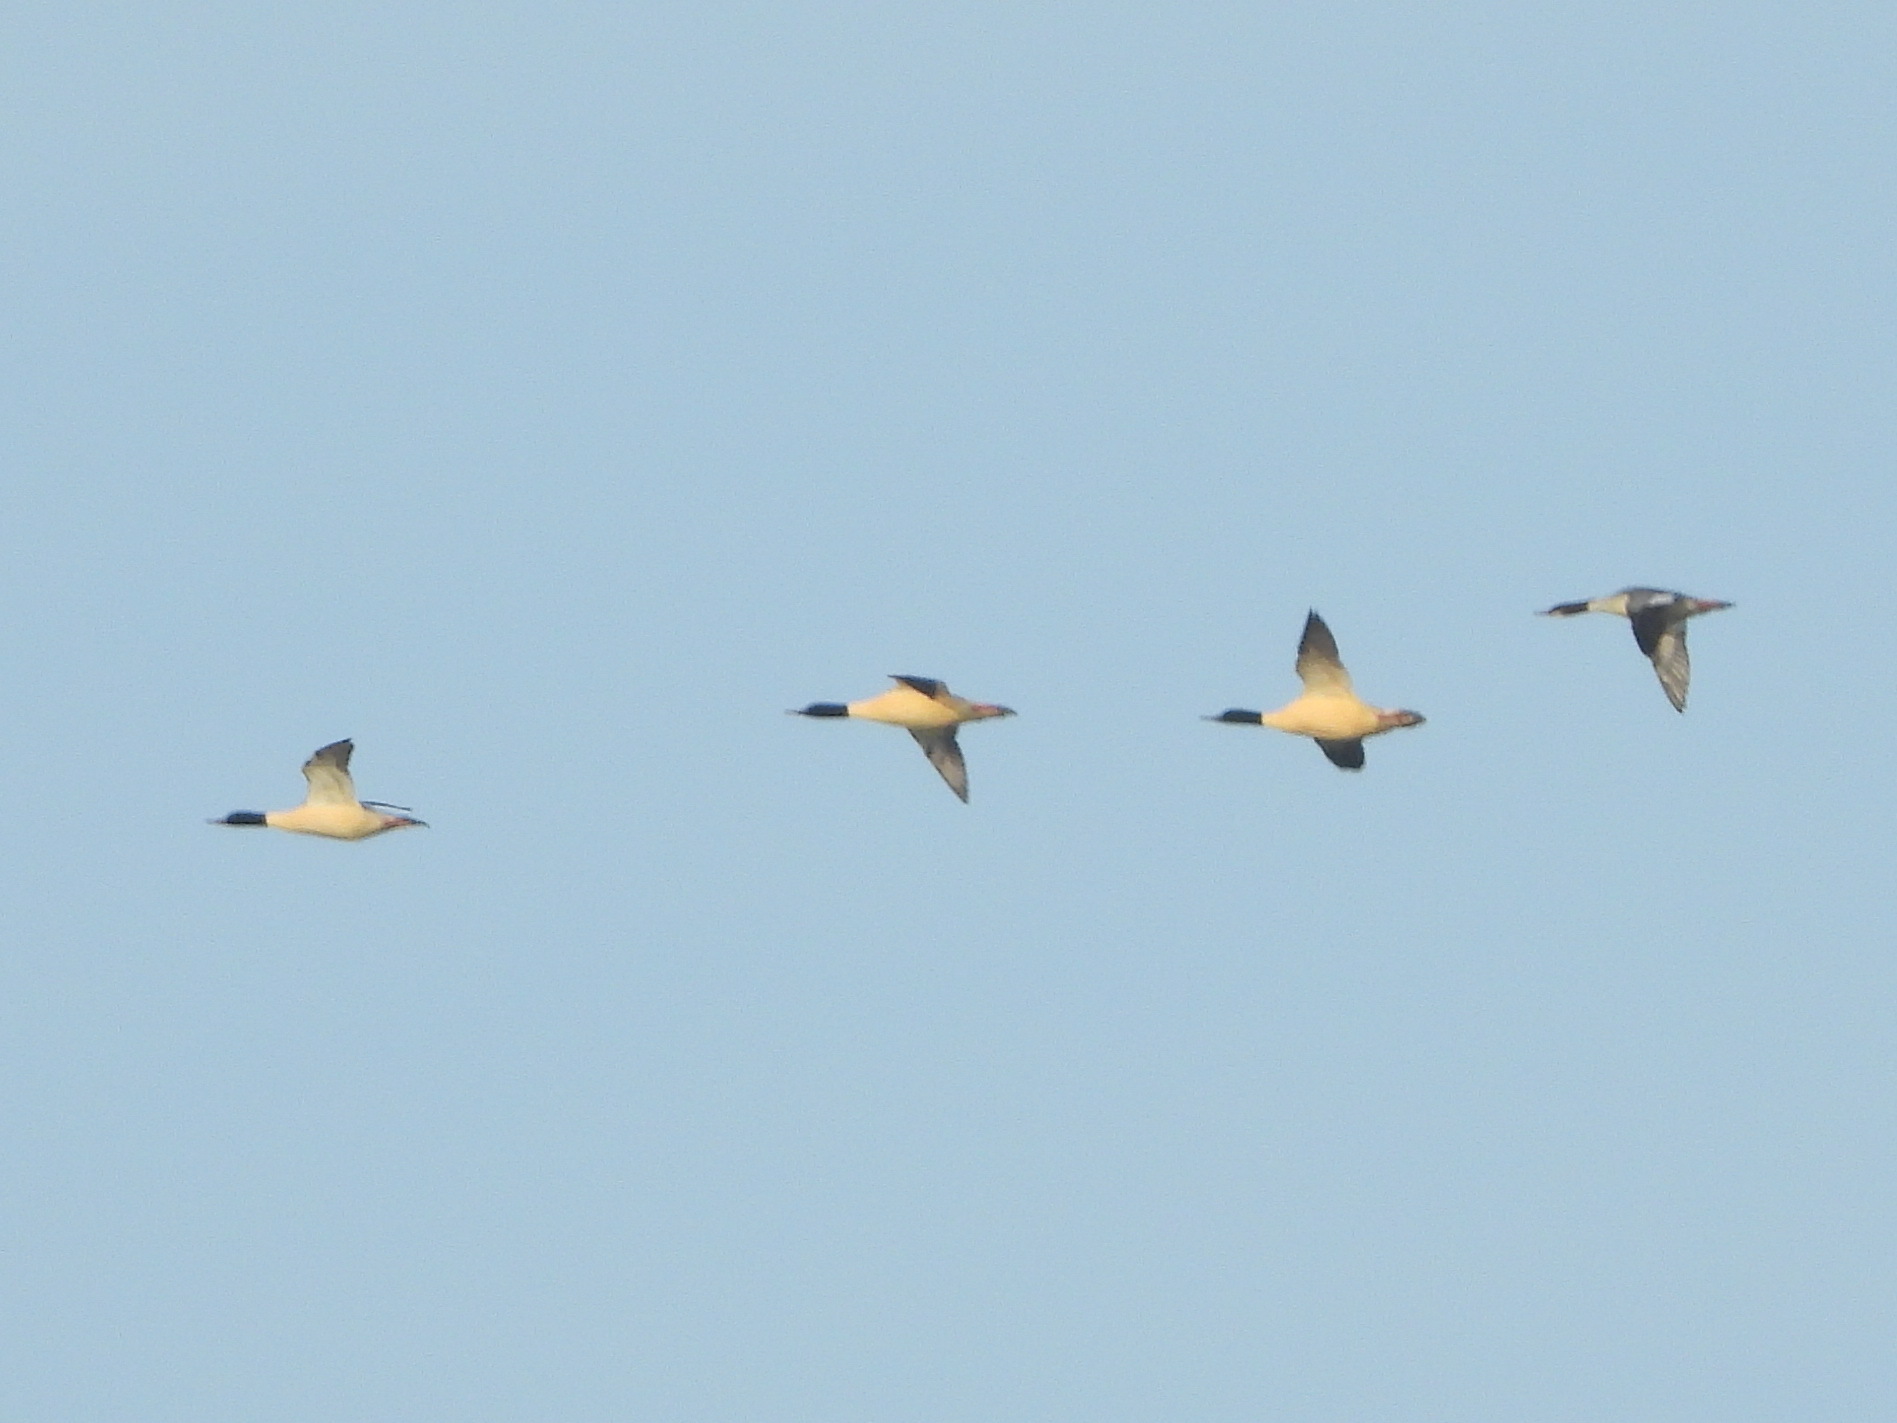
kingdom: Animalia
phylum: Chordata
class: Aves
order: Anseriformes
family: Anatidae
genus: Mergus
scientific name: Mergus merganser
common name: Common merganser
